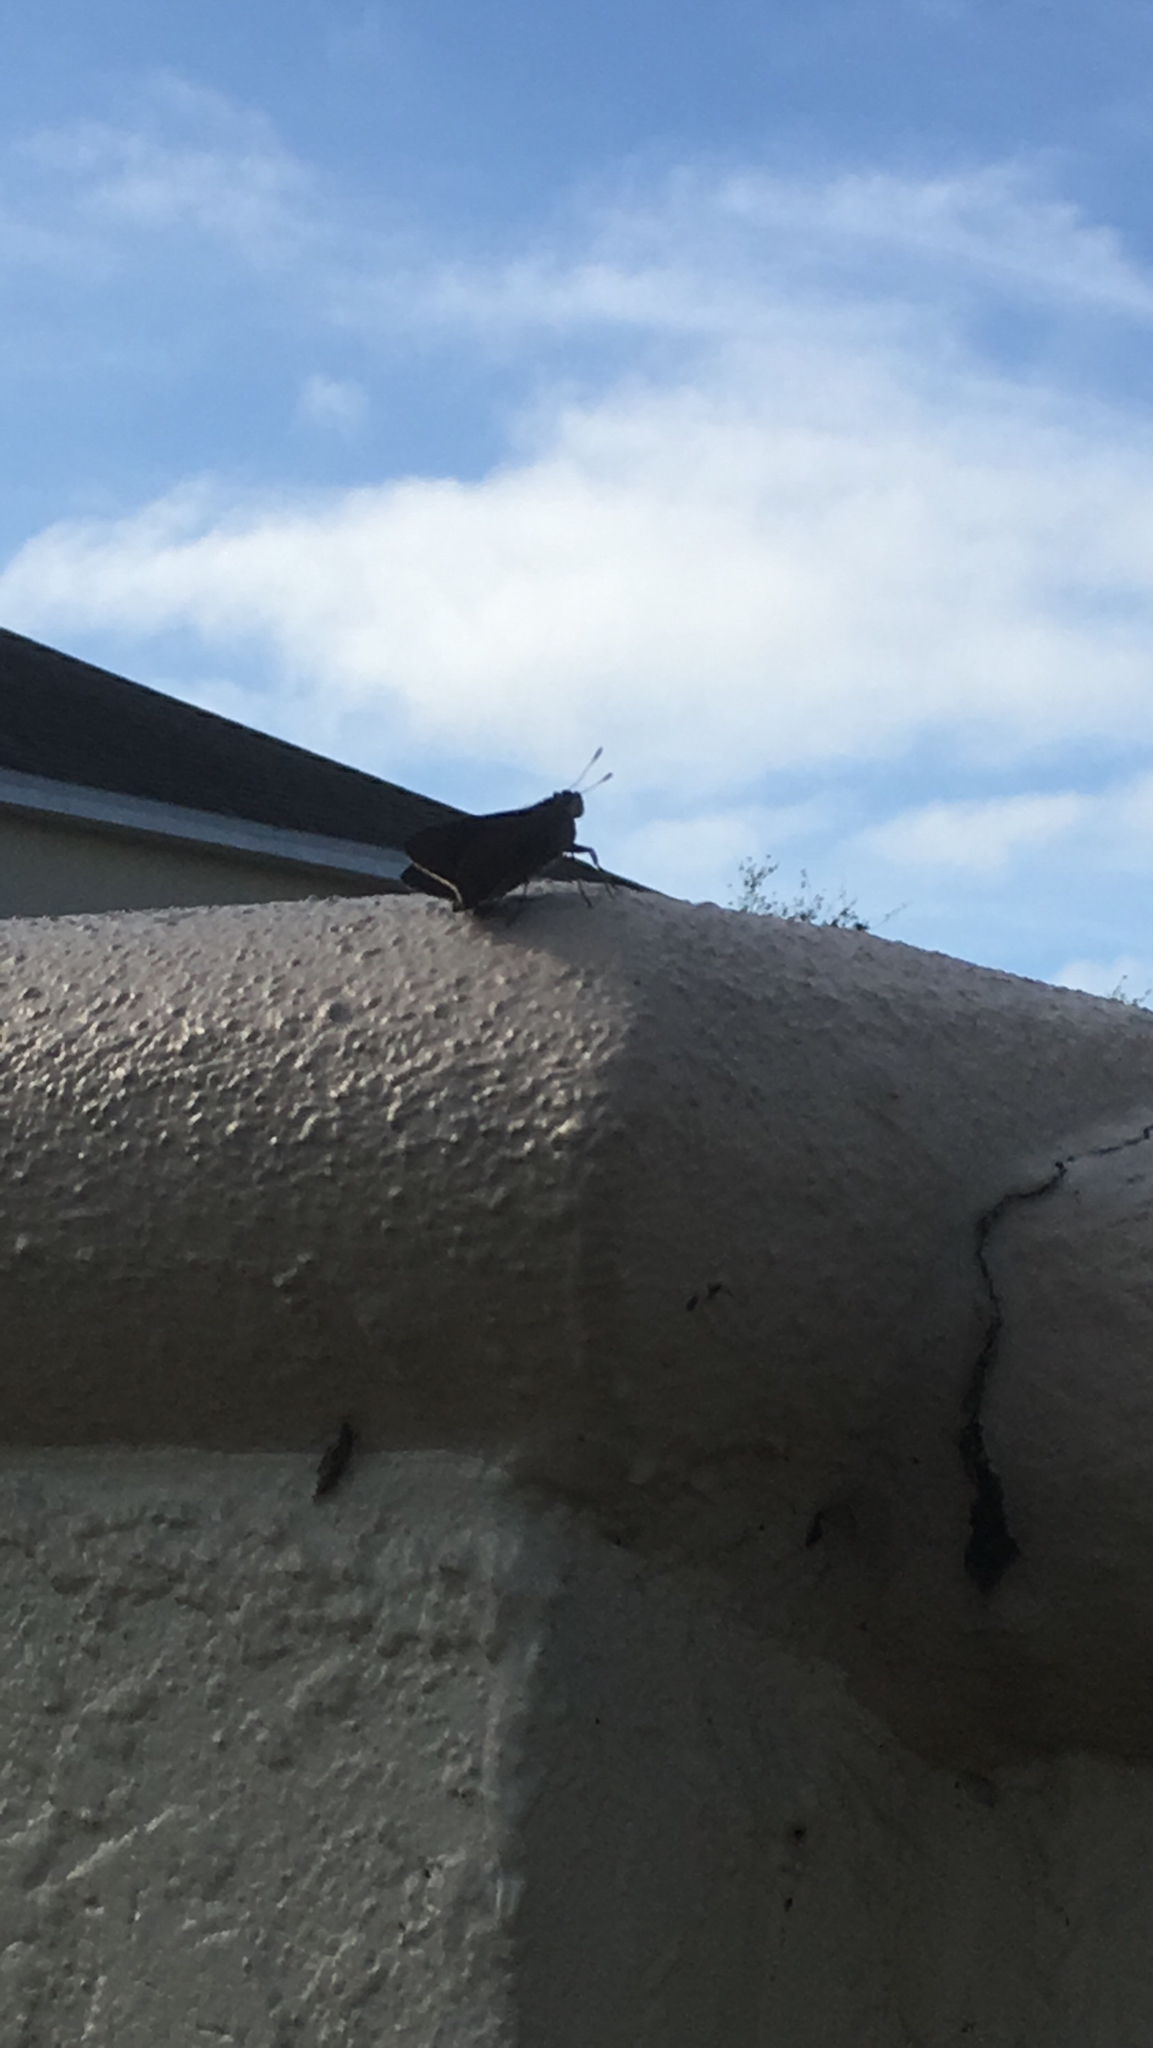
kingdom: Animalia
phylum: Arthropoda
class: Insecta
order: Lepidoptera
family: Hesperiidae
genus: Asbolis
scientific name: Asbolis capucinus
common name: Monk skipper
